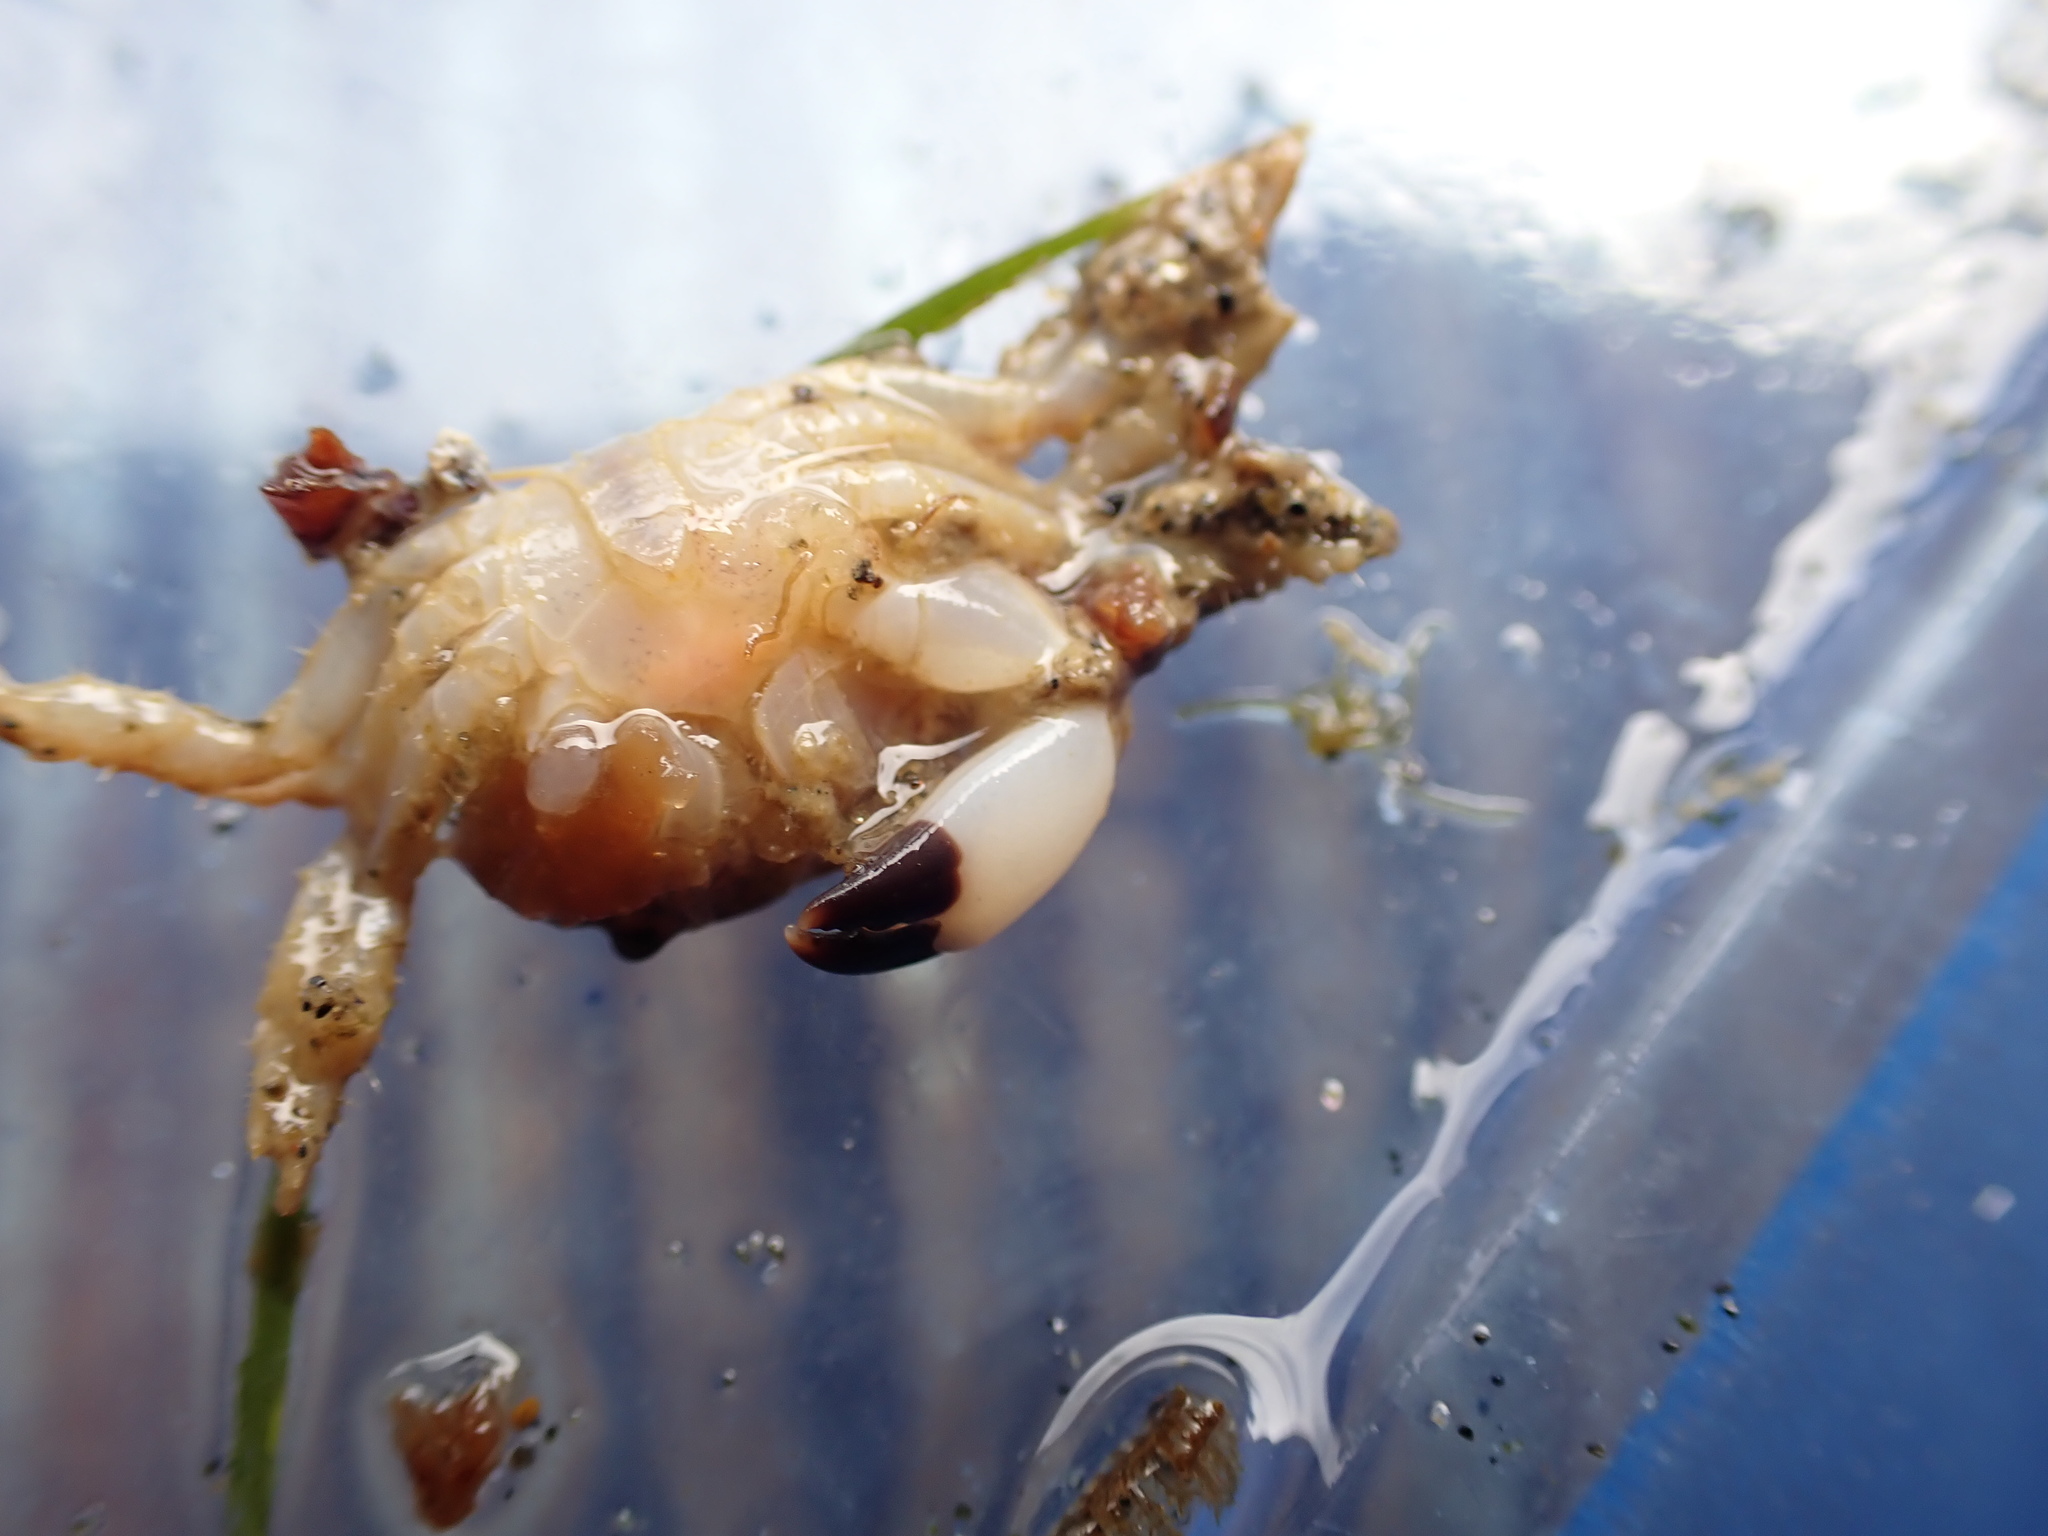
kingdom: Animalia
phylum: Arthropoda
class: Malacostraca
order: Decapoda
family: Oziidae
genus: Ozius
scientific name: Ozius deplanatus
